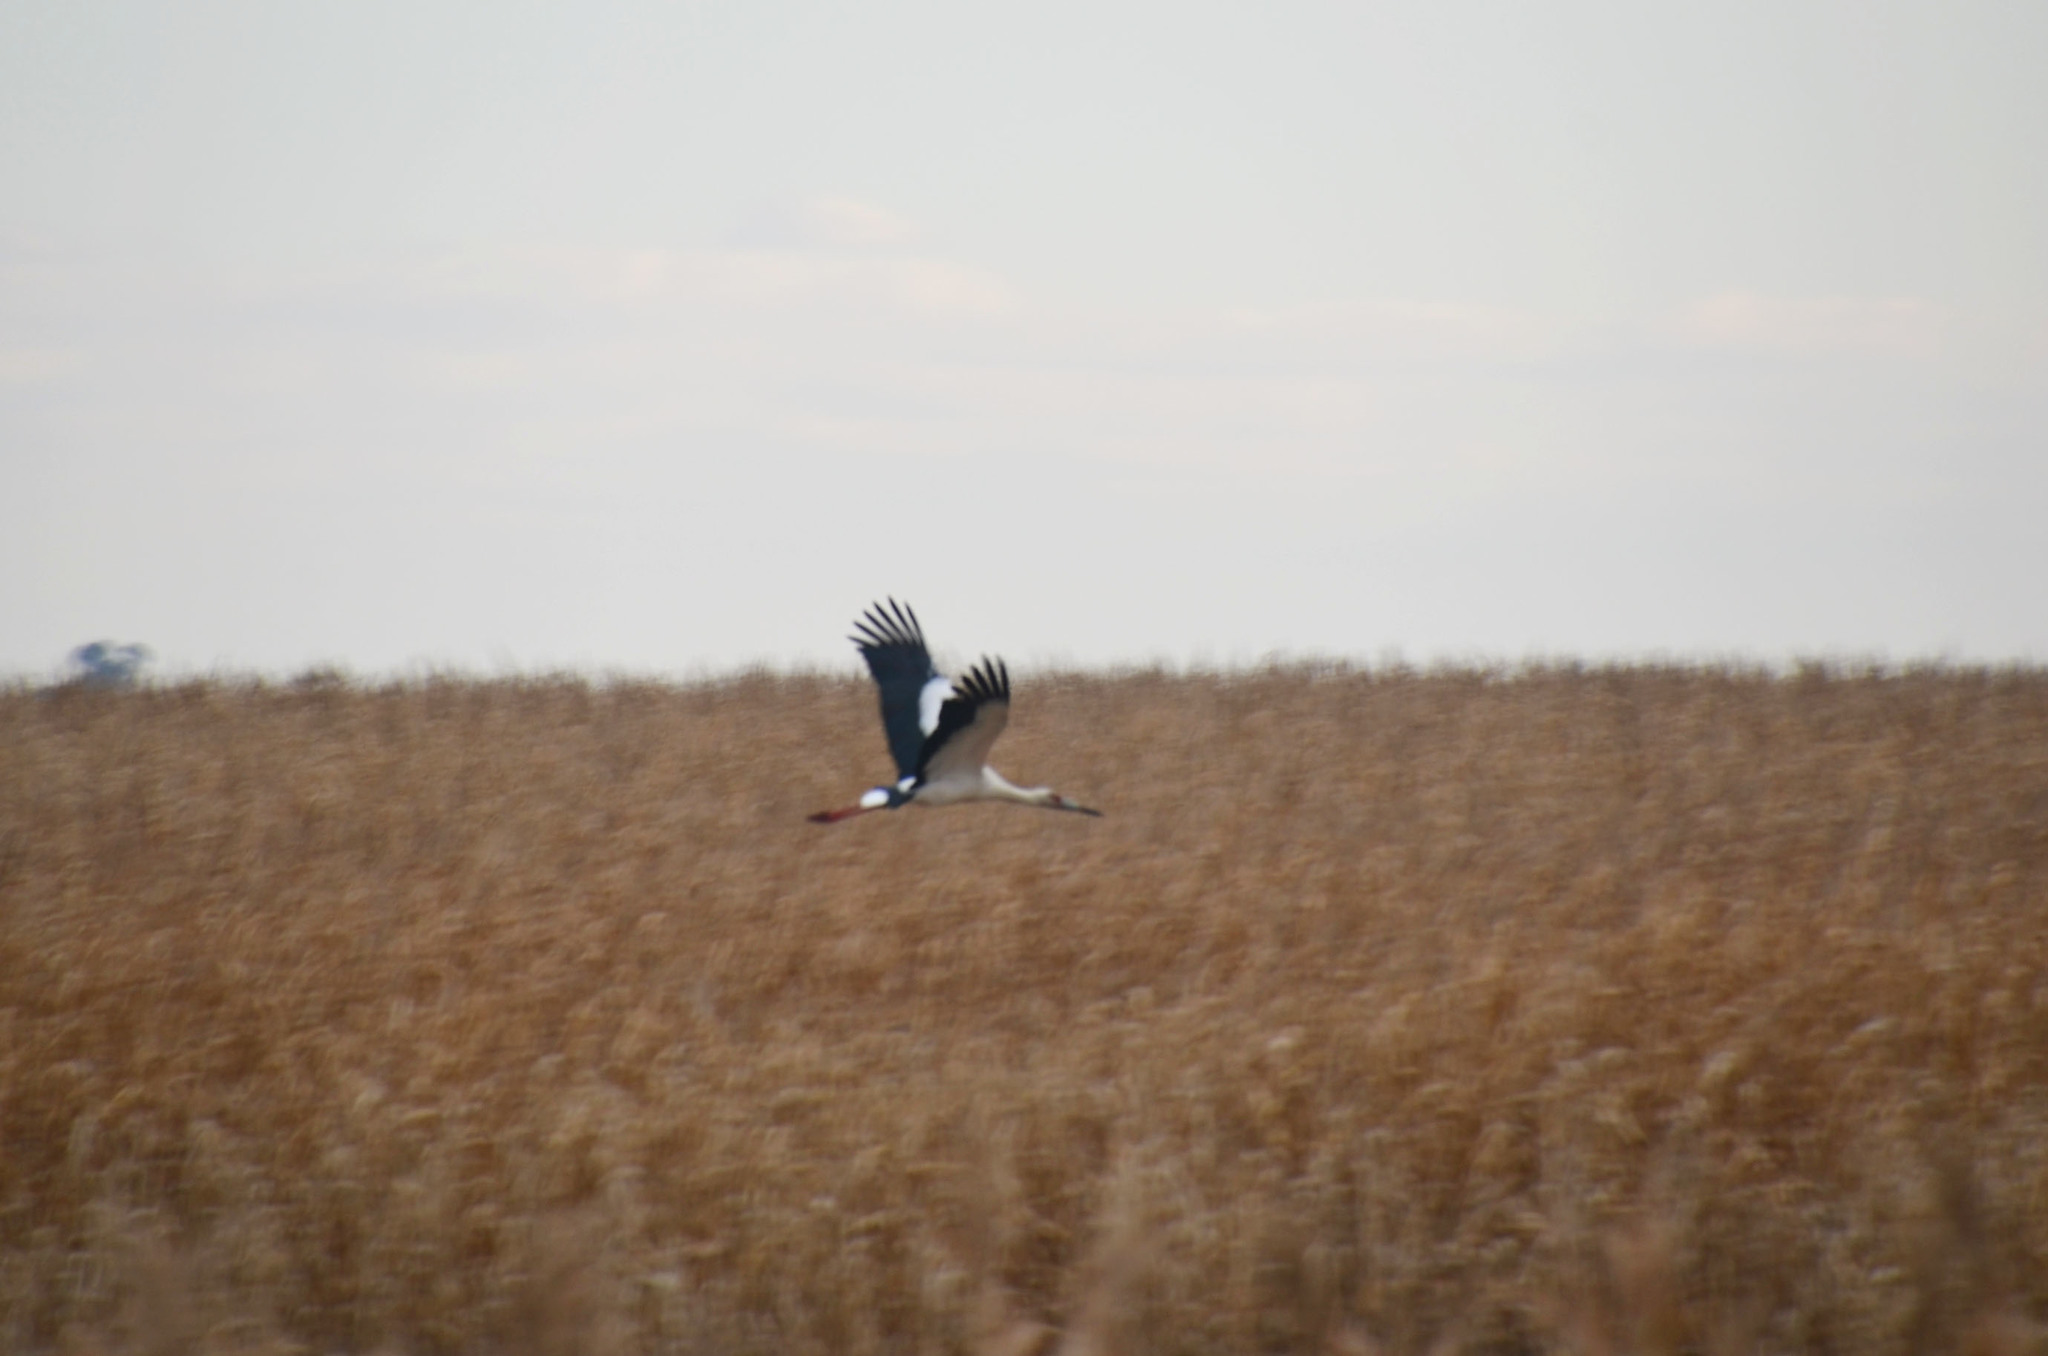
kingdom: Animalia
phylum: Chordata
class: Aves
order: Ciconiiformes
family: Ciconiidae
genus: Ciconia
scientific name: Ciconia maguari
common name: Maguari stork
